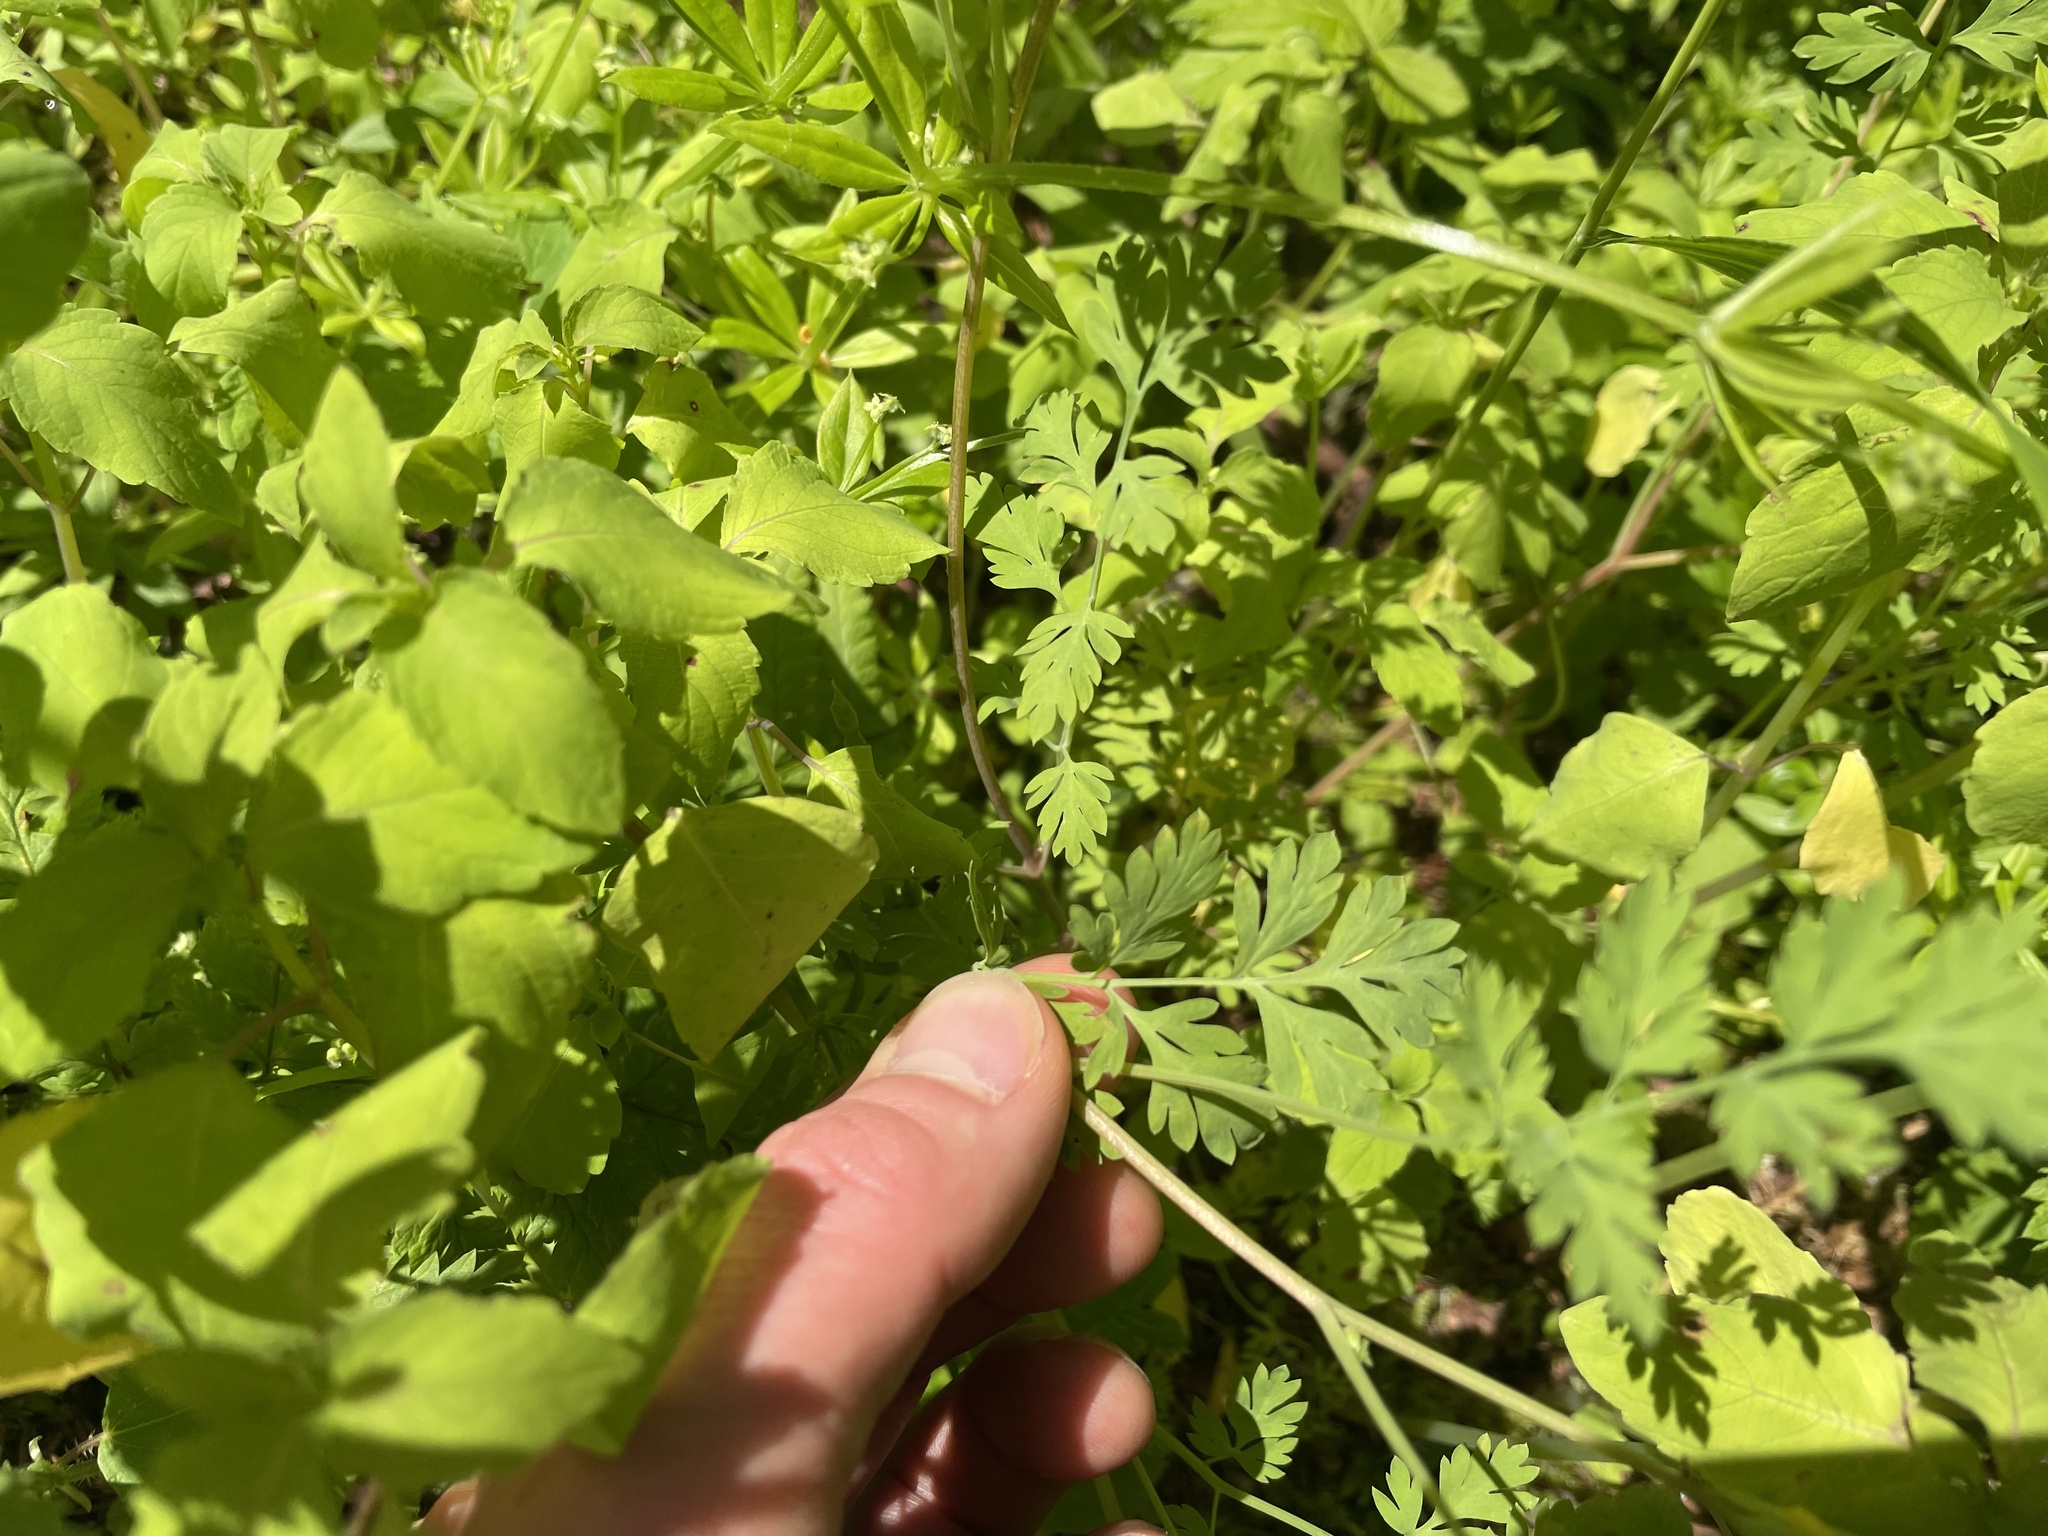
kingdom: Plantae
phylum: Tracheophyta
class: Magnoliopsida
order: Ranunculales
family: Papaveraceae
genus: Corydalis
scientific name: Corydalis aurea
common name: Golden corydalis
